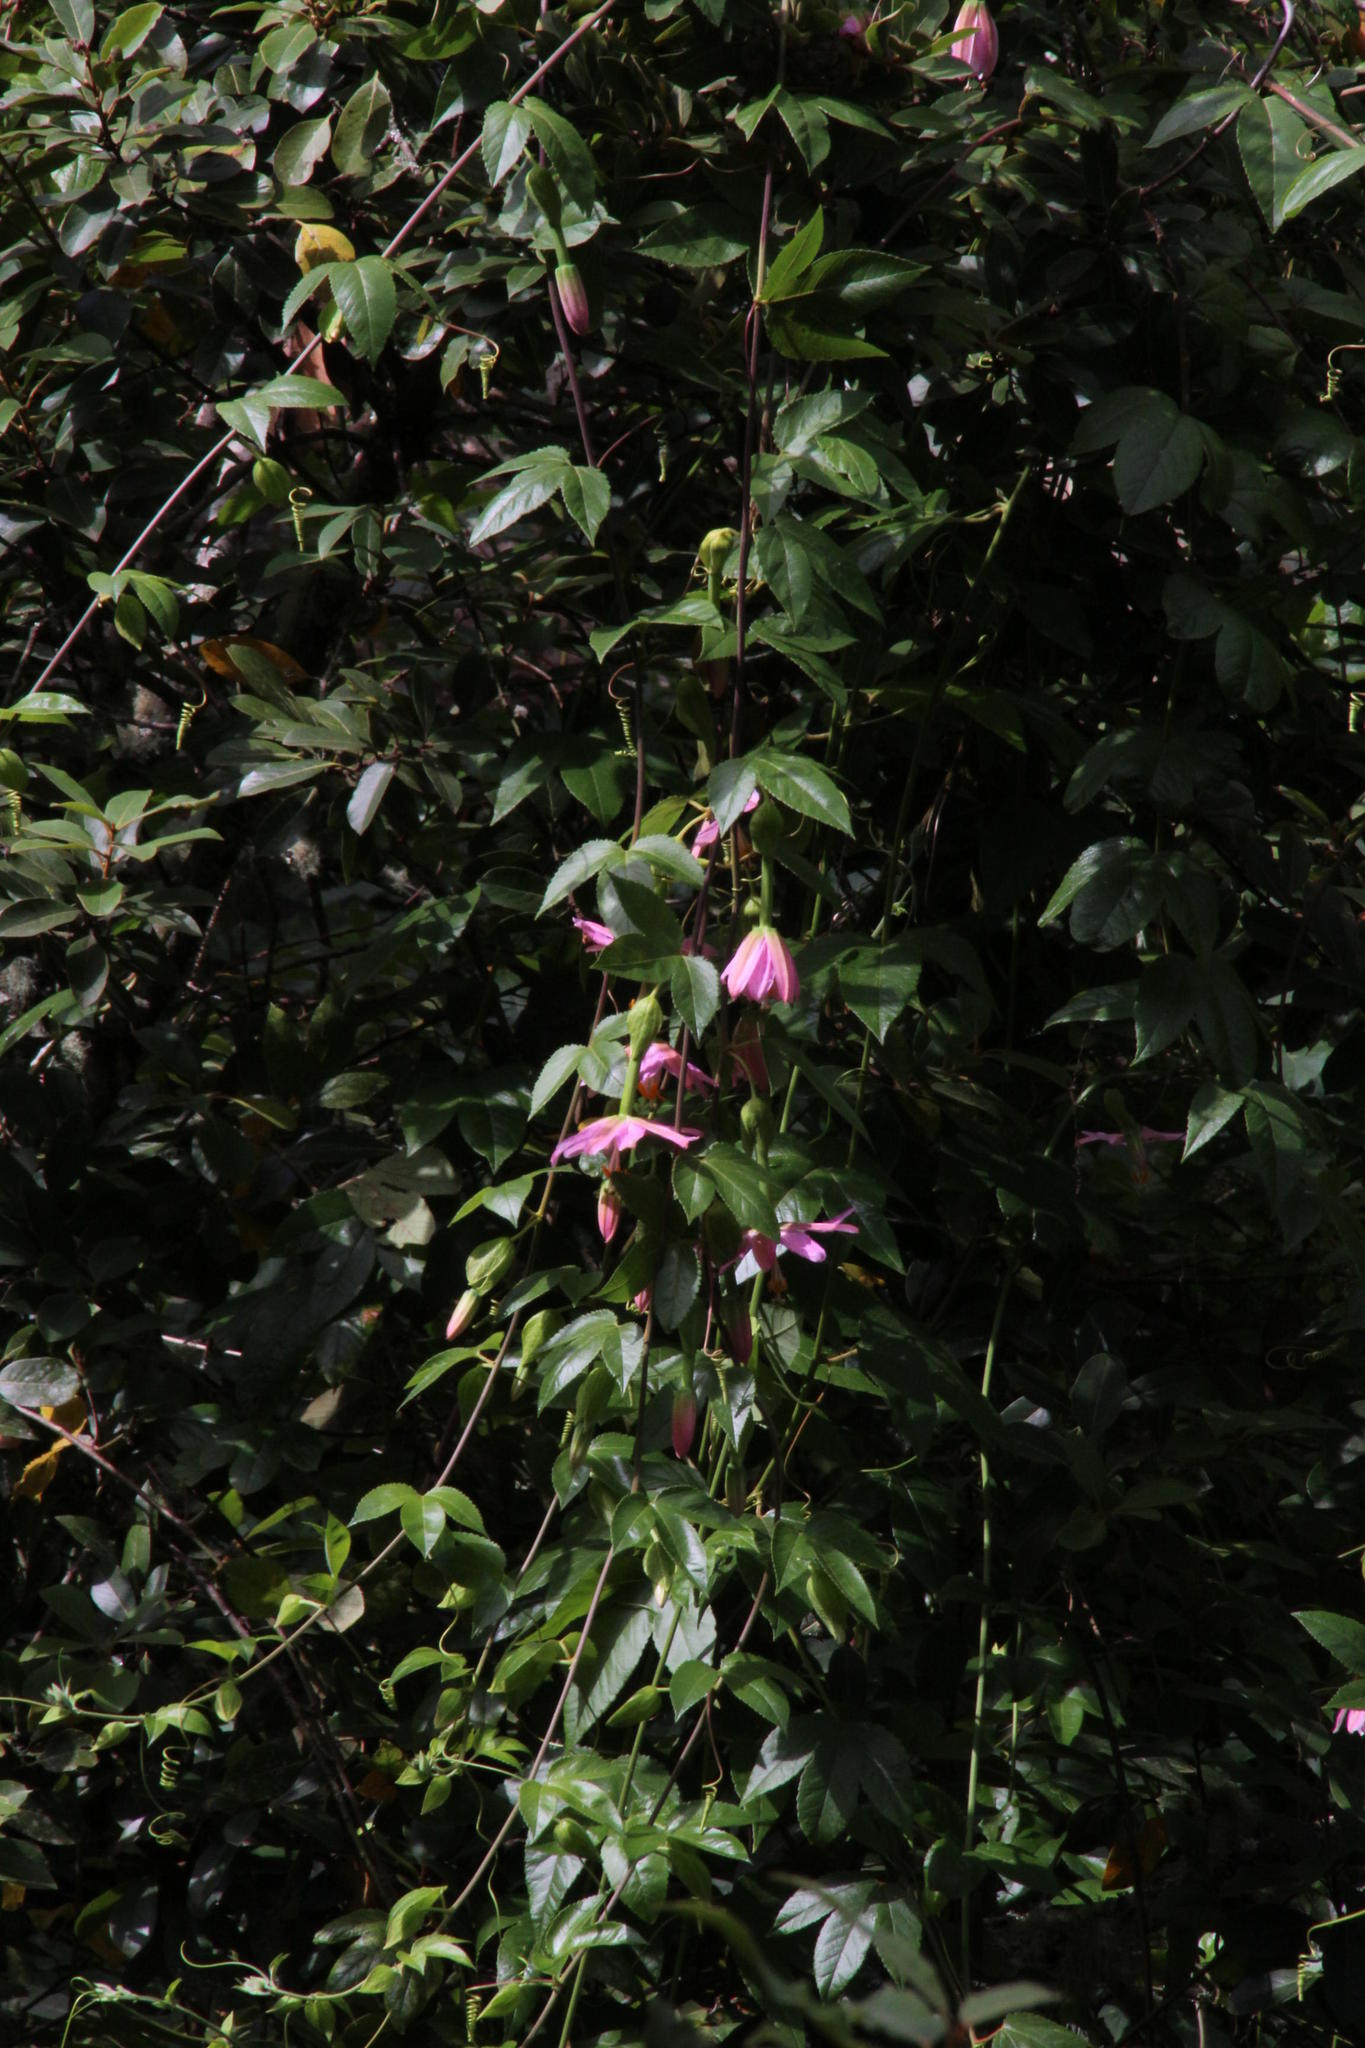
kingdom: Plantae
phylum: Tracheophyta
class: Magnoliopsida
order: Malpighiales
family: Passifloraceae
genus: Passiflora
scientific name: Passiflora tarminiana
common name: Banana poka
